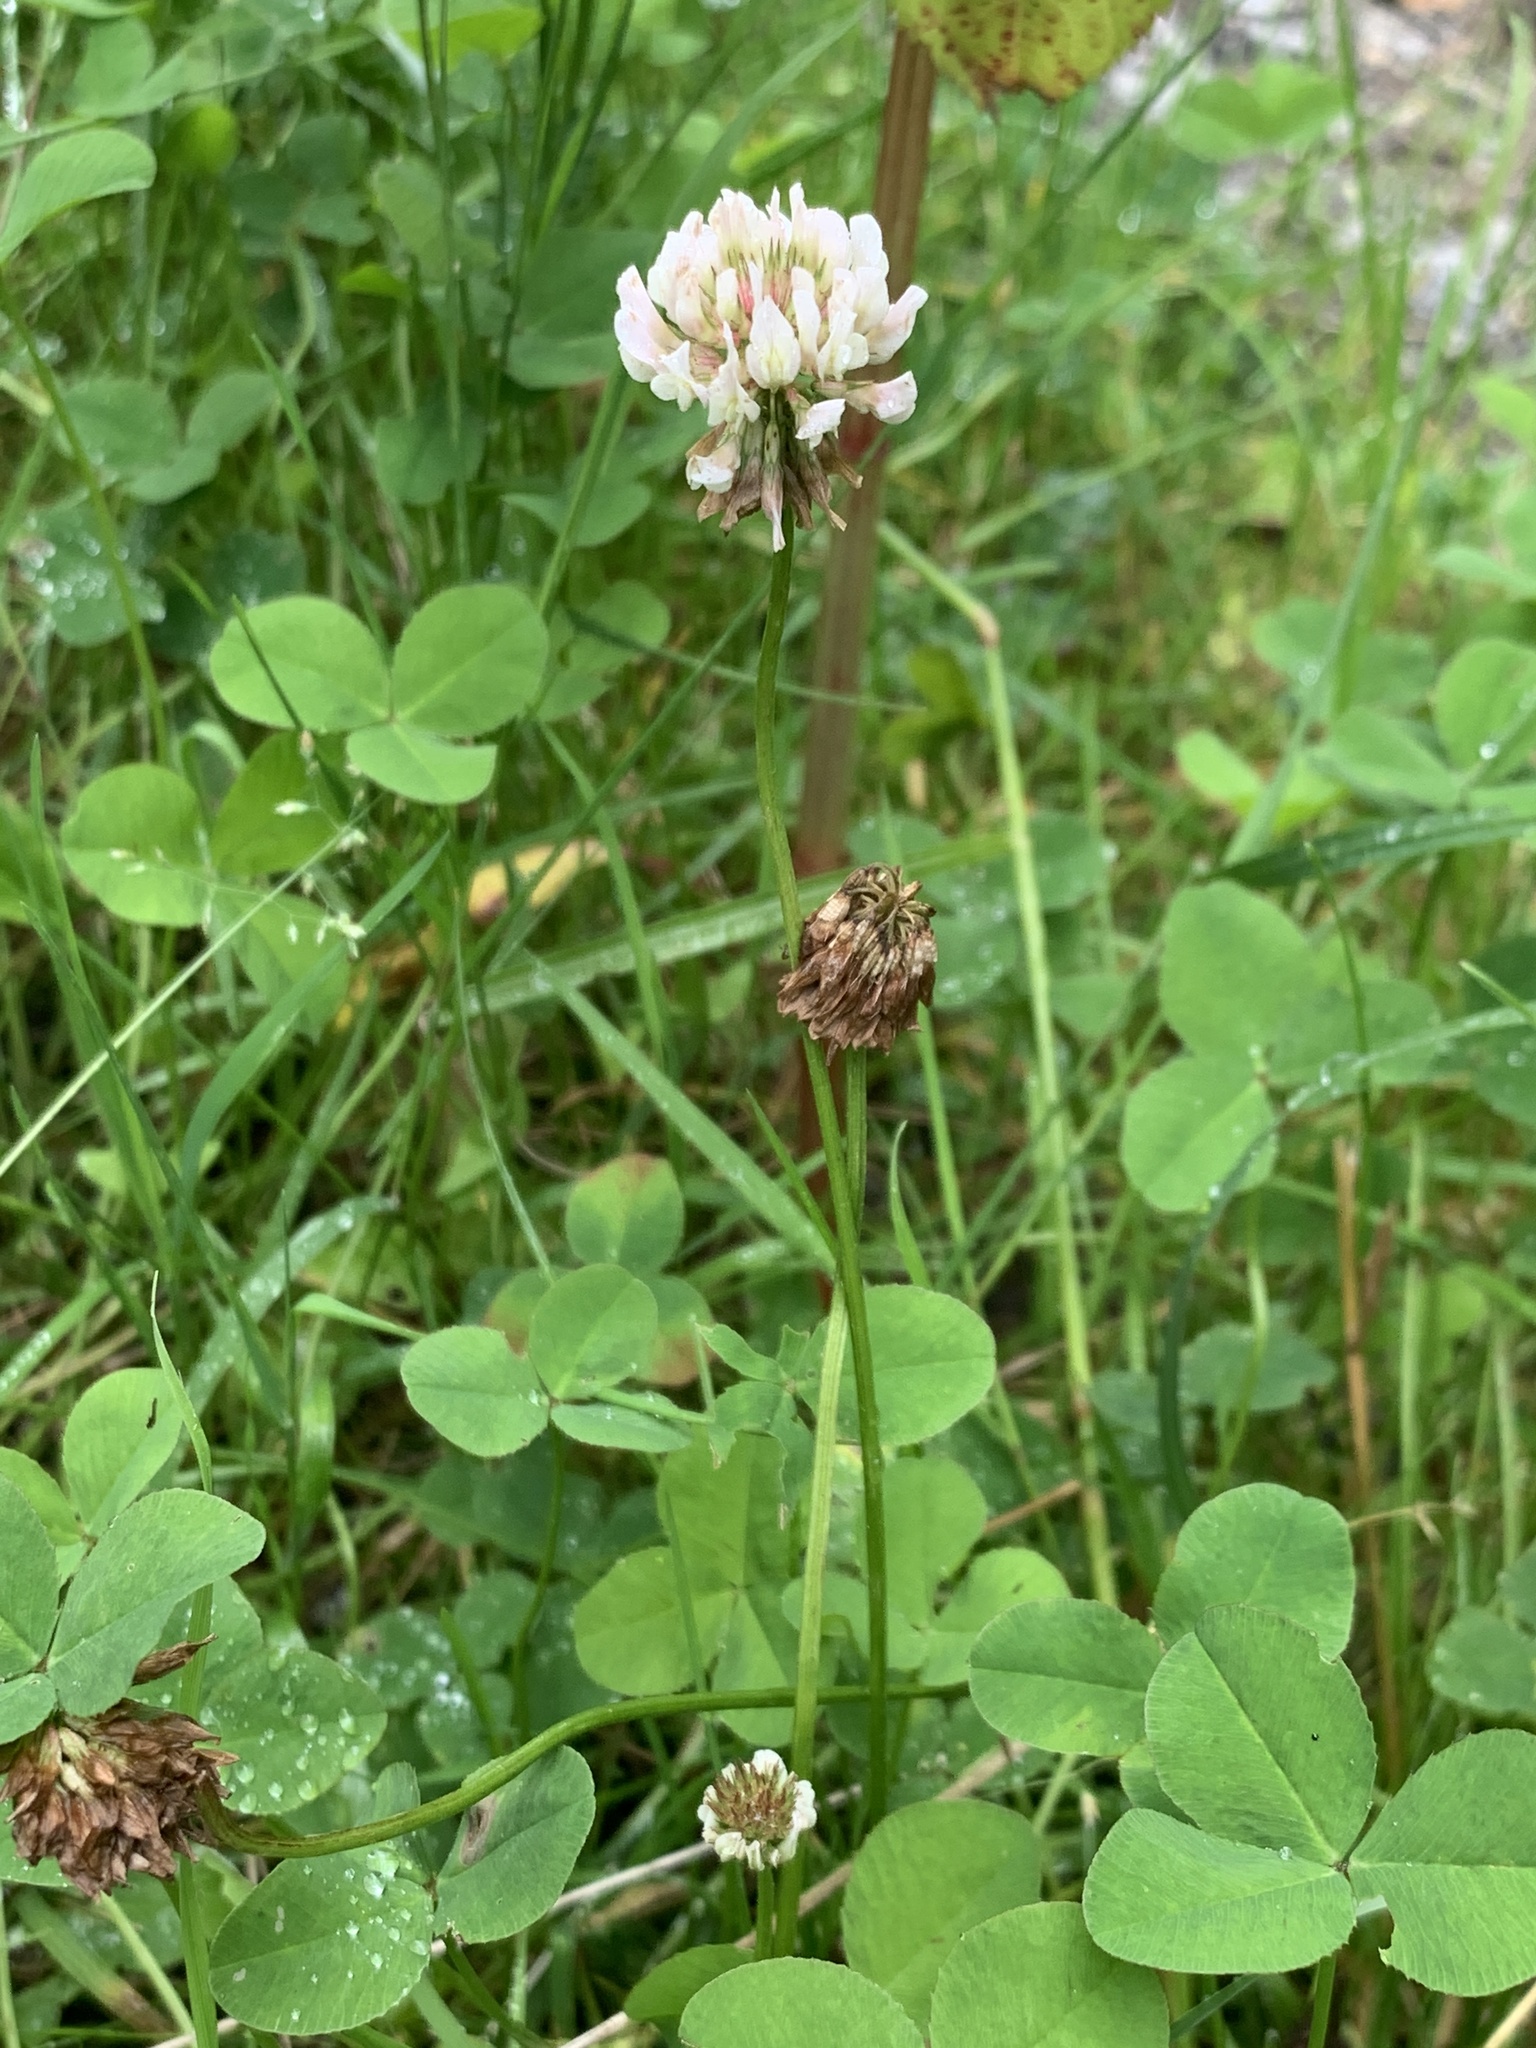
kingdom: Plantae
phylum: Tracheophyta
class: Magnoliopsida
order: Fabales
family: Fabaceae
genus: Trifolium
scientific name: Trifolium repens
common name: White clover
